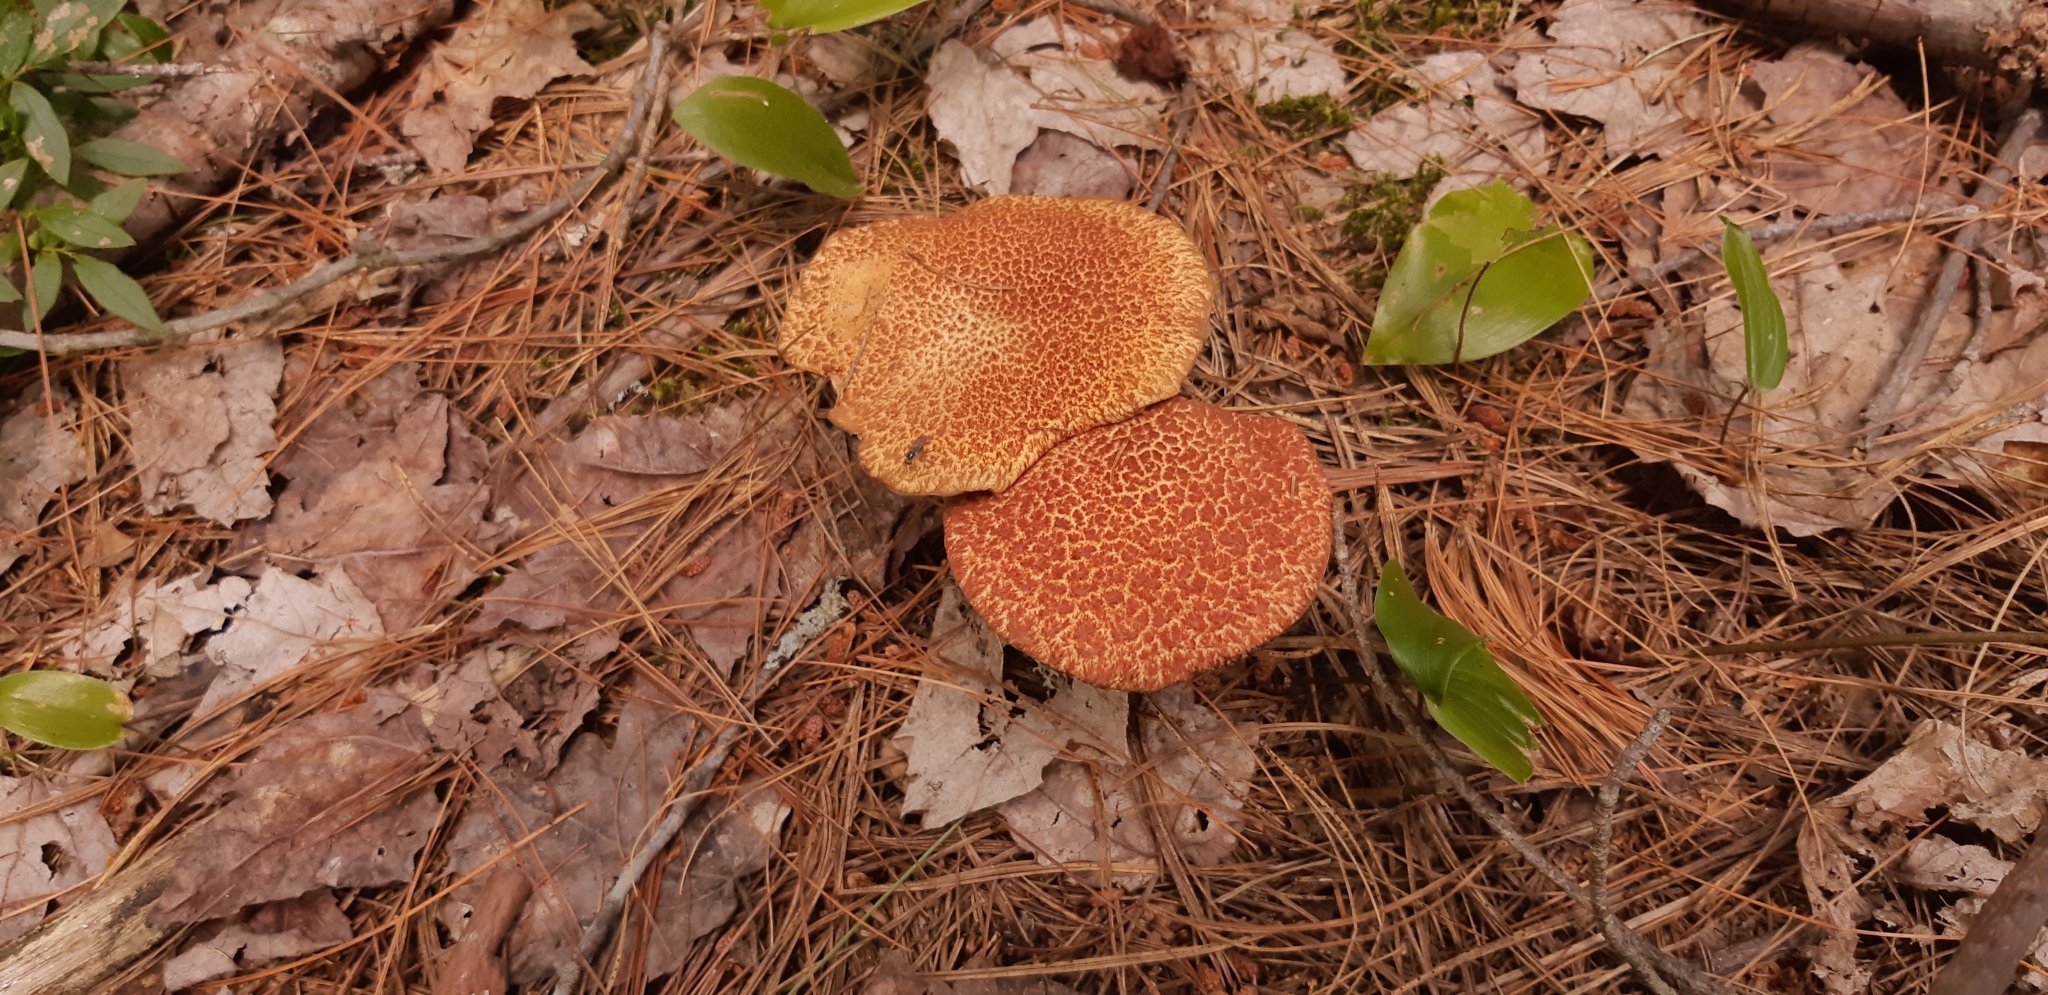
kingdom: Fungi
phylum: Basidiomycota
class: Agaricomycetes
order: Boletales
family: Suillaceae
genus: Suillus
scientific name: Suillus spraguei
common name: Painted suillus
